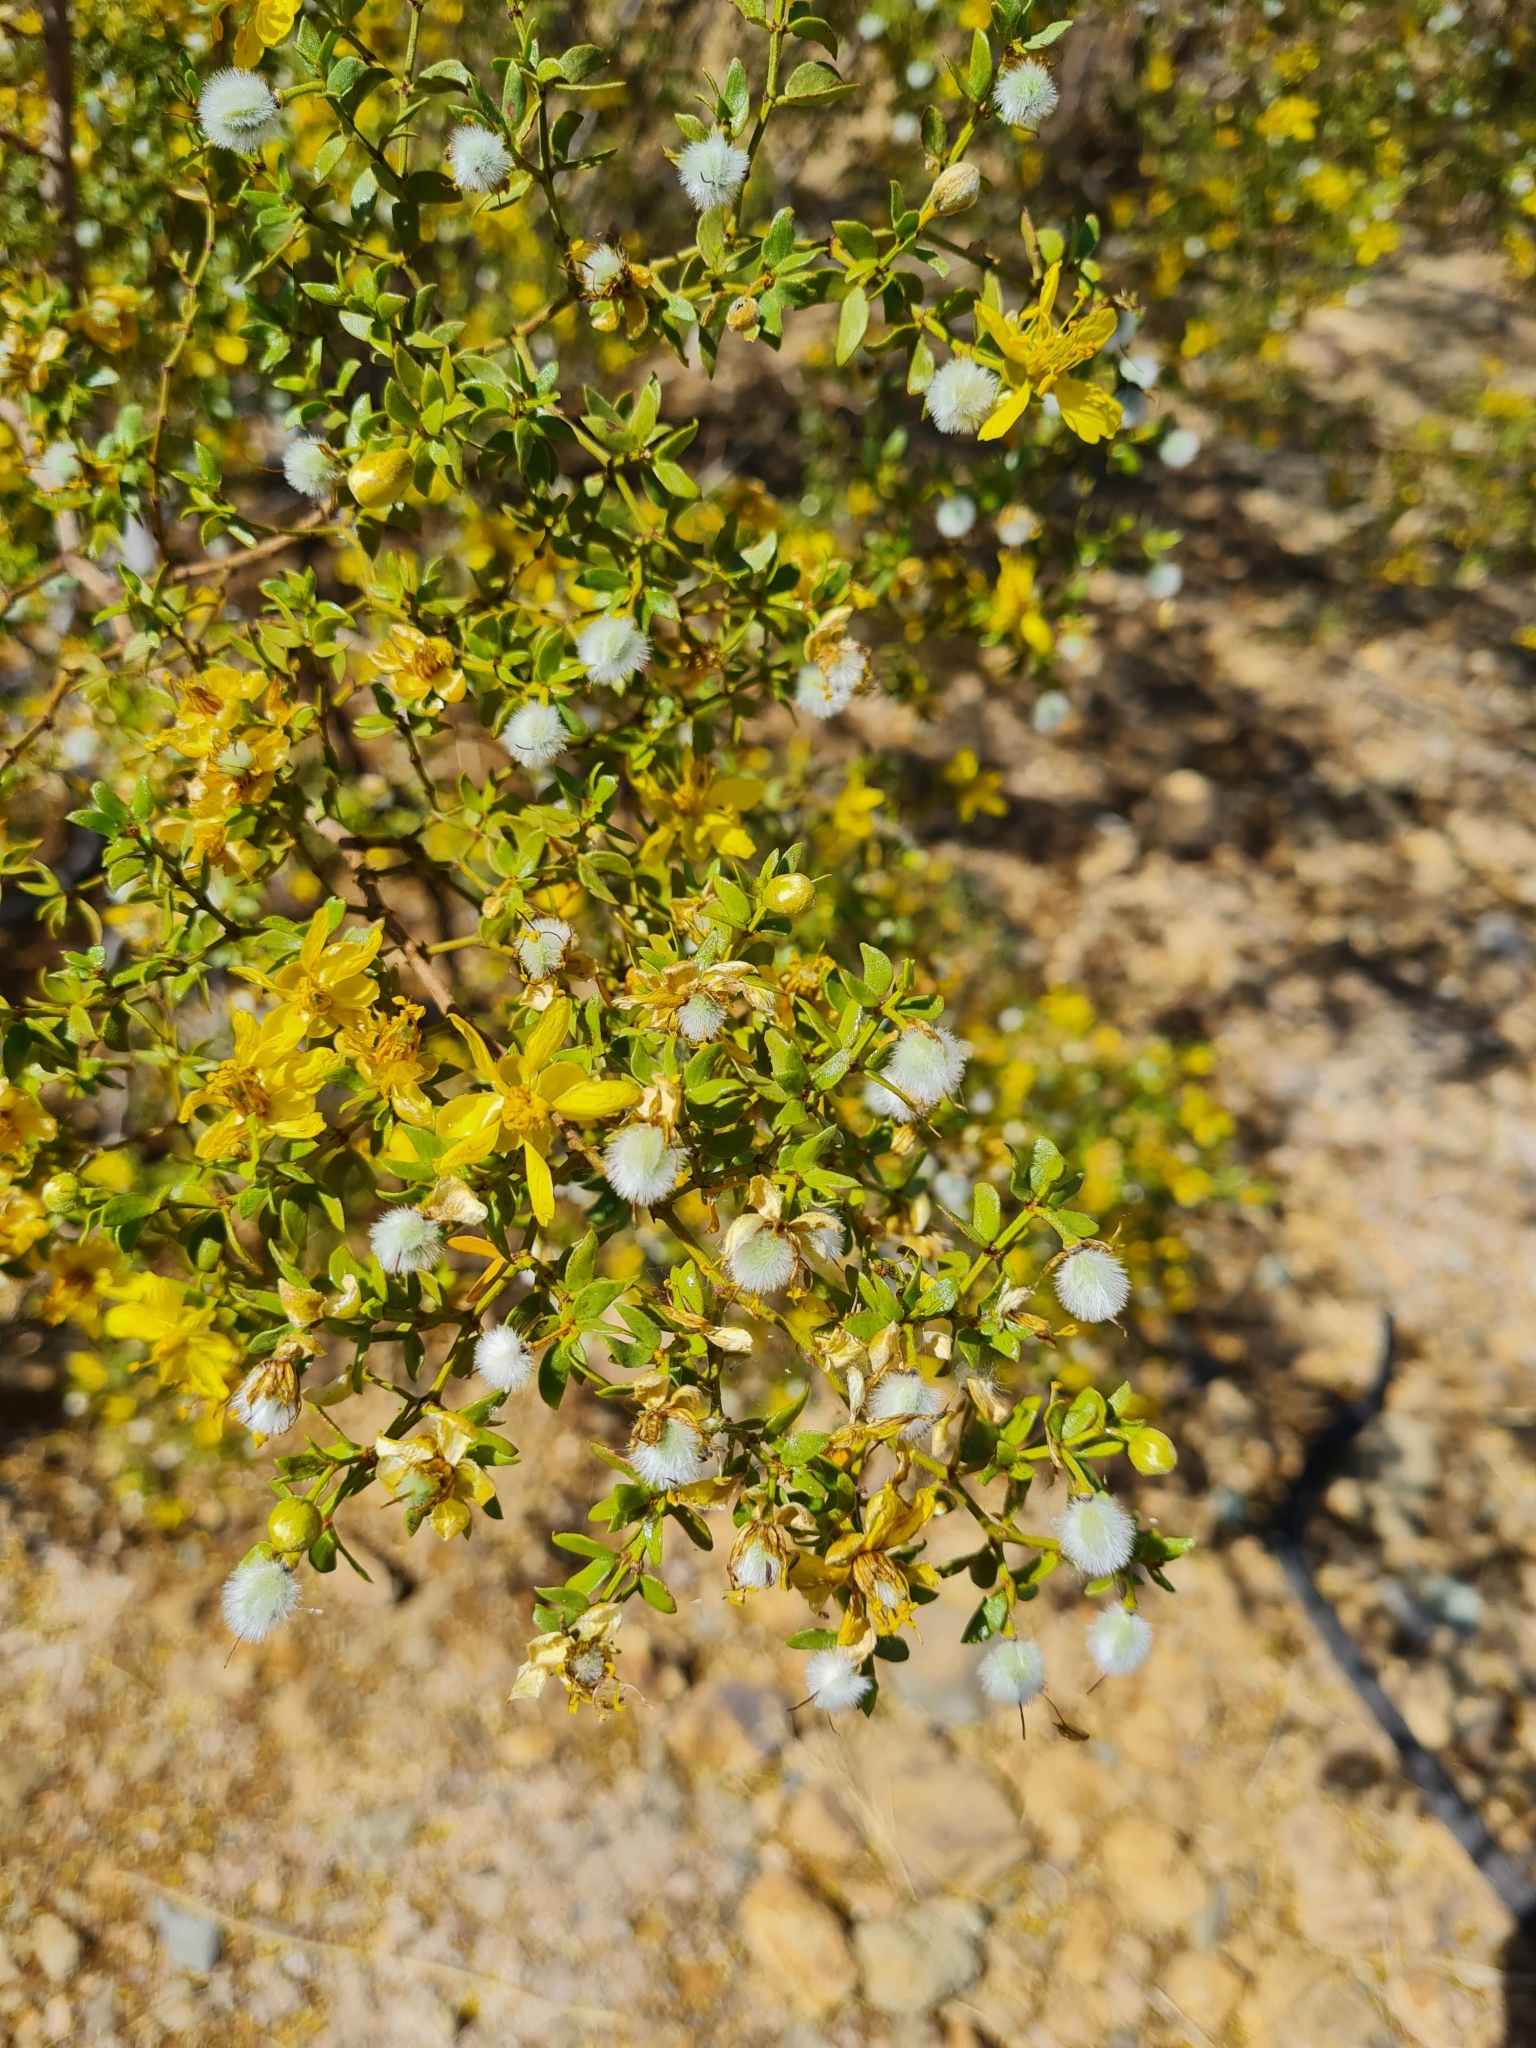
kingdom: Plantae
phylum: Tracheophyta
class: Magnoliopsida
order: Zygophyllales
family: Zygophyllaceae
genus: Larrea
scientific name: Larrea tridentata
